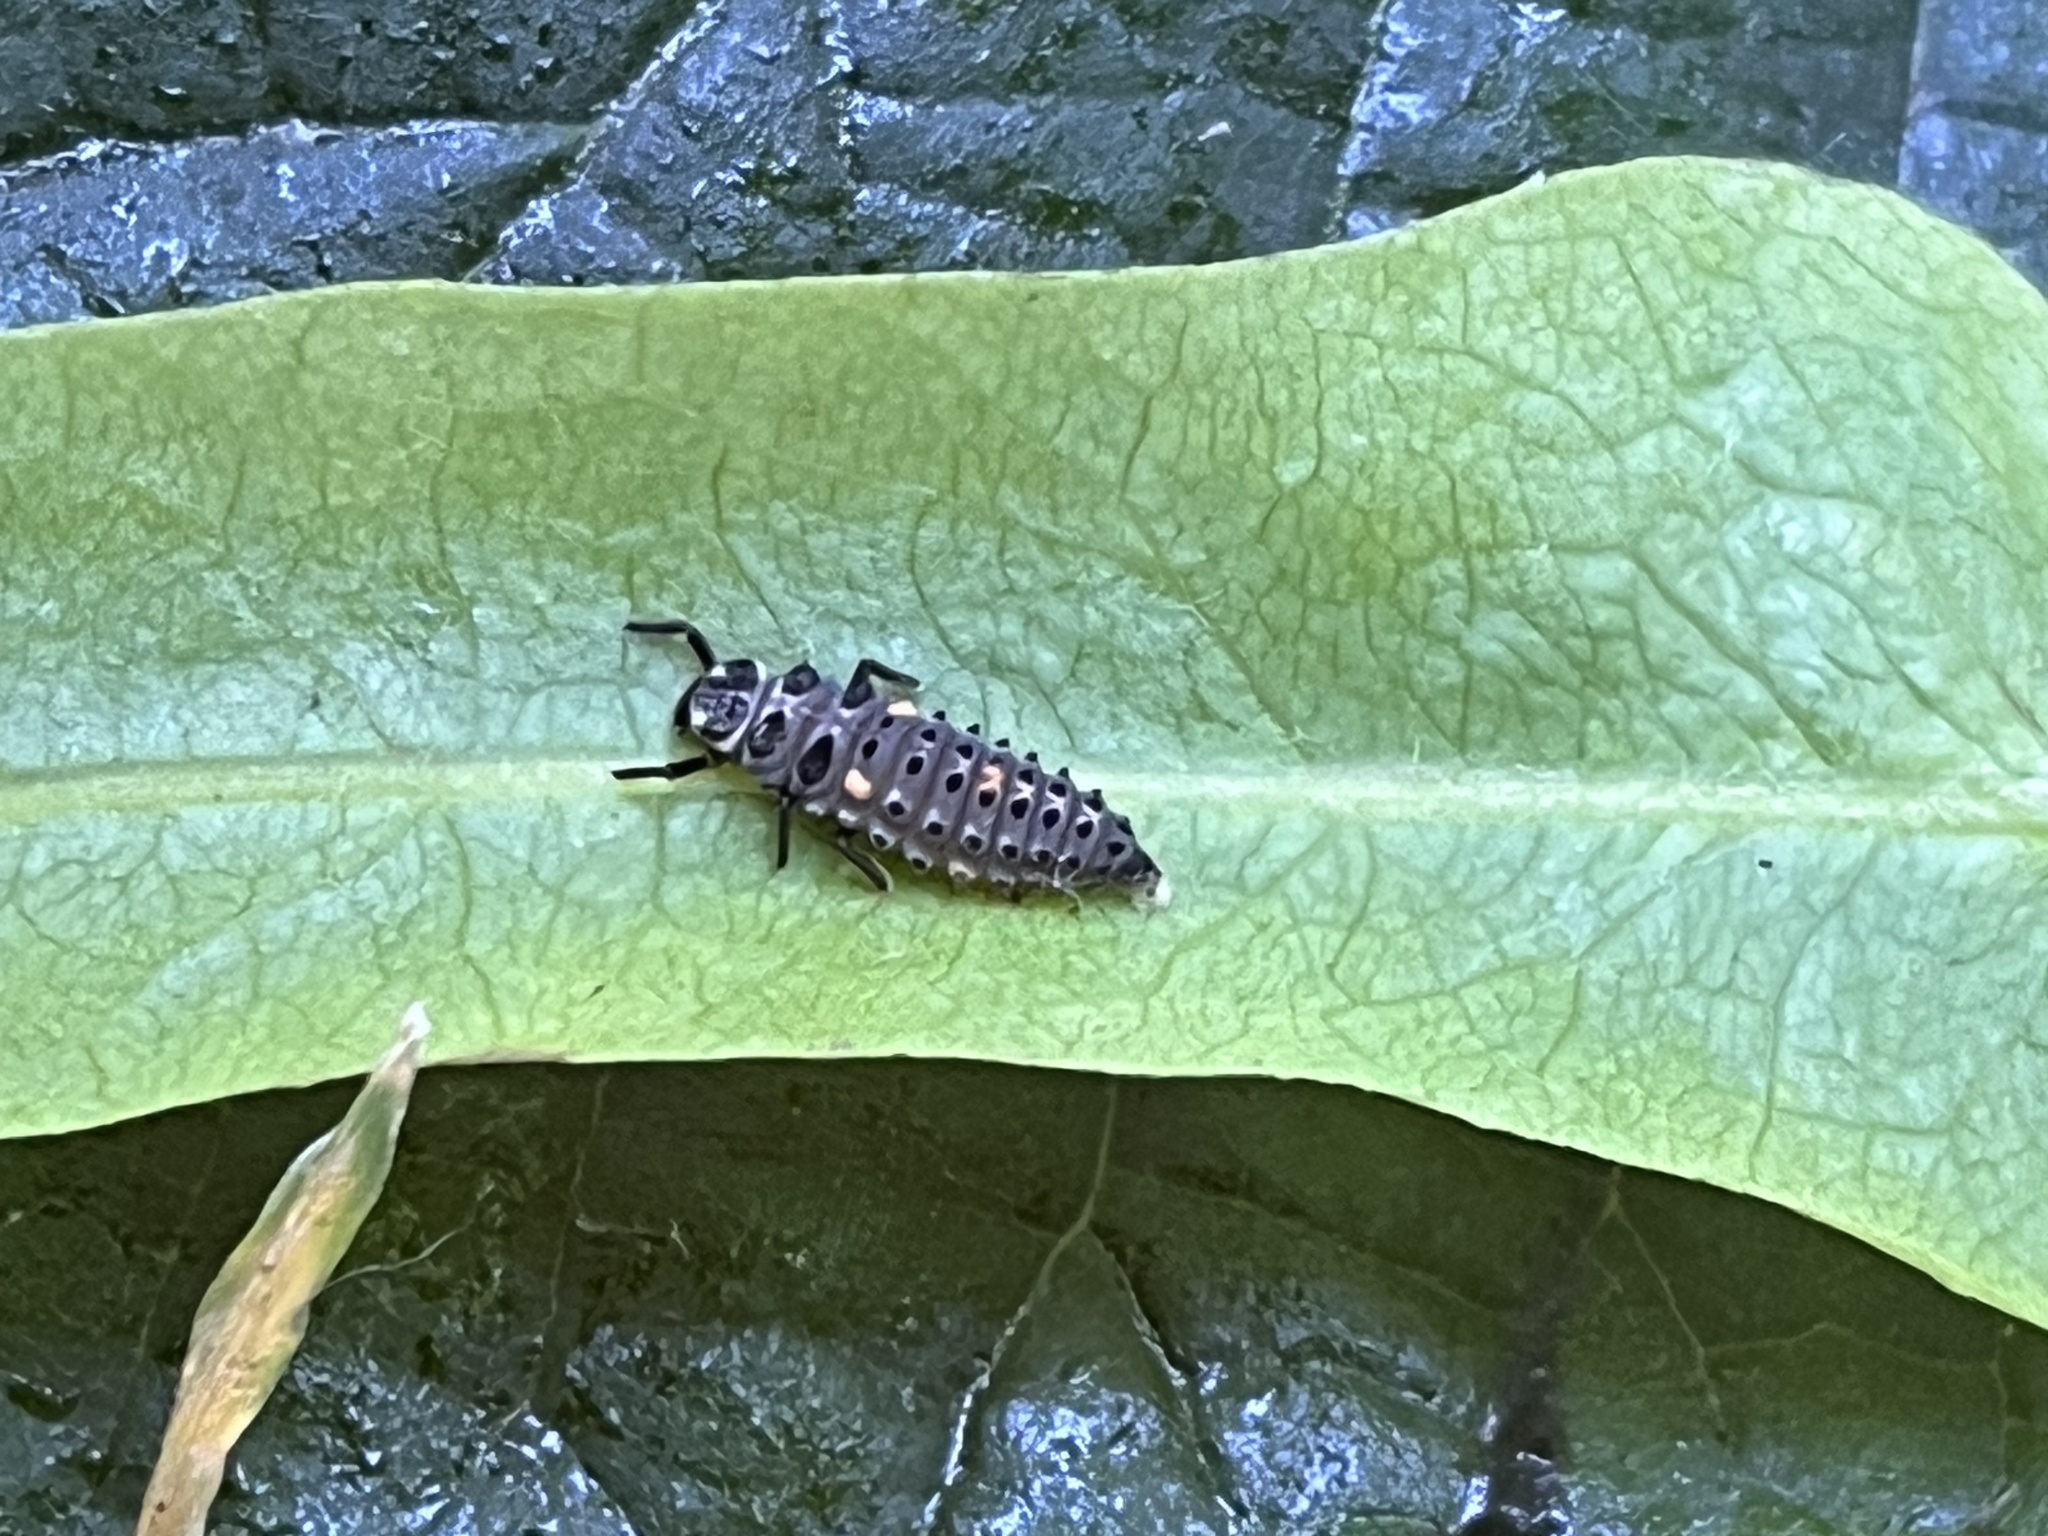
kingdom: Animalia
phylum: Arthropoda
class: Insecta
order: Coleoptera
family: Coccinellidae
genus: Adalia
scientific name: Adalia bipunctata
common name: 2-spot ladybird
